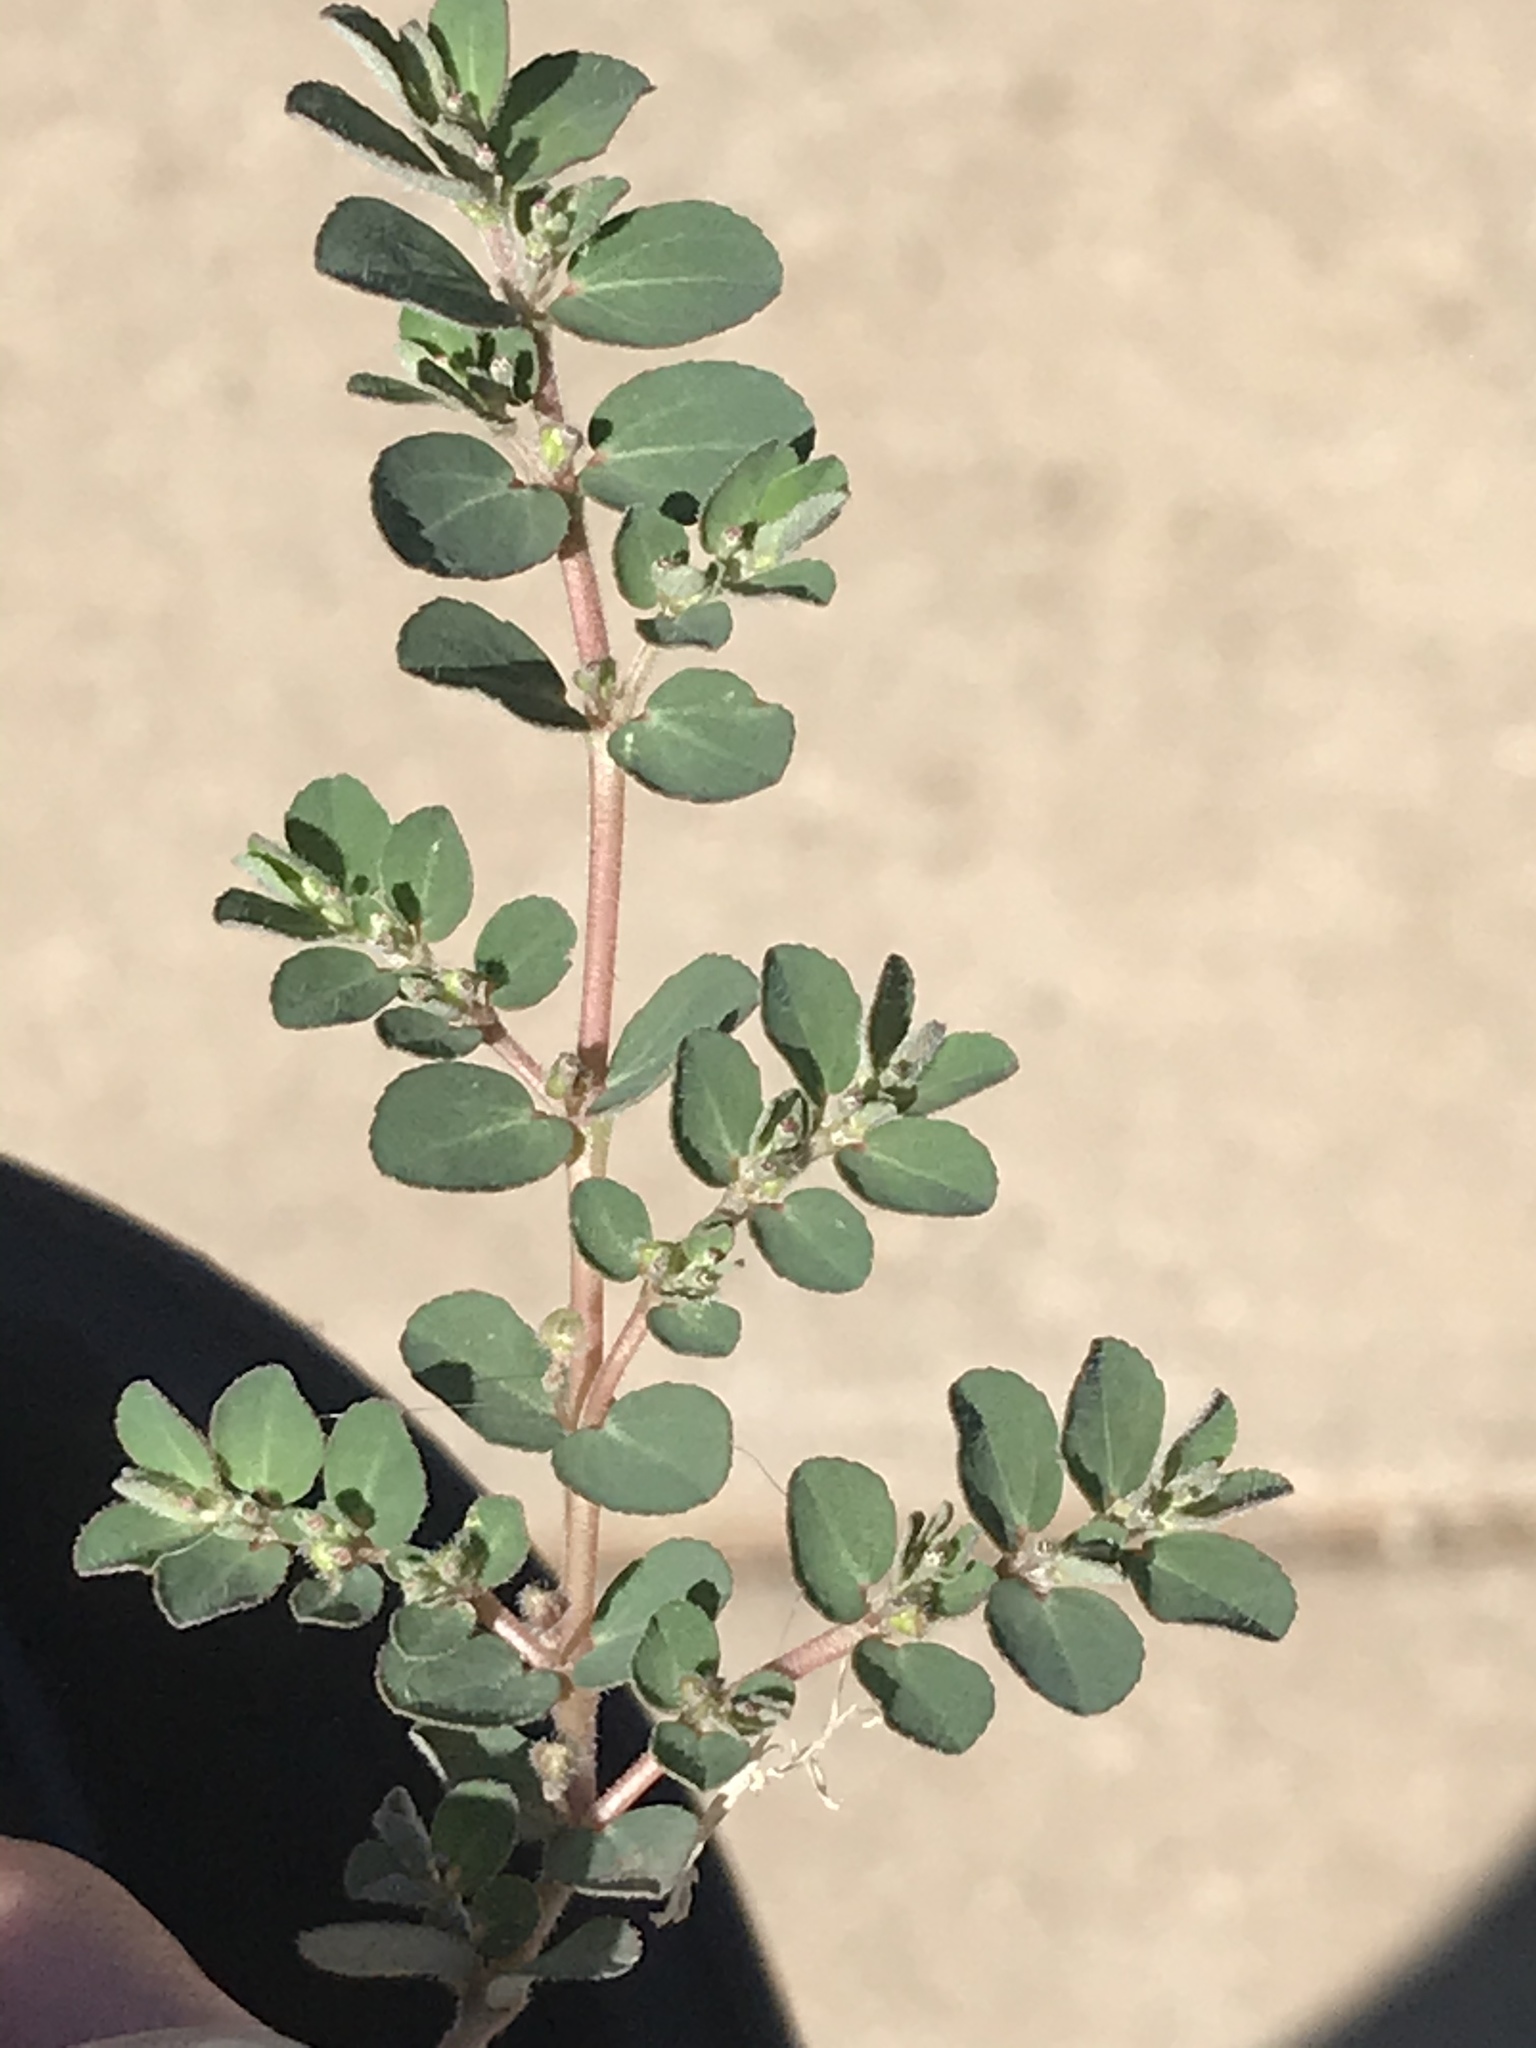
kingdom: Plantae
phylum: Tracheophyta
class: Magnoliopsida
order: Malpighiales
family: Euphorbiaceae
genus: Euphorbia
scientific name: Euphorbia prostrata
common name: Prostrate sandmat
